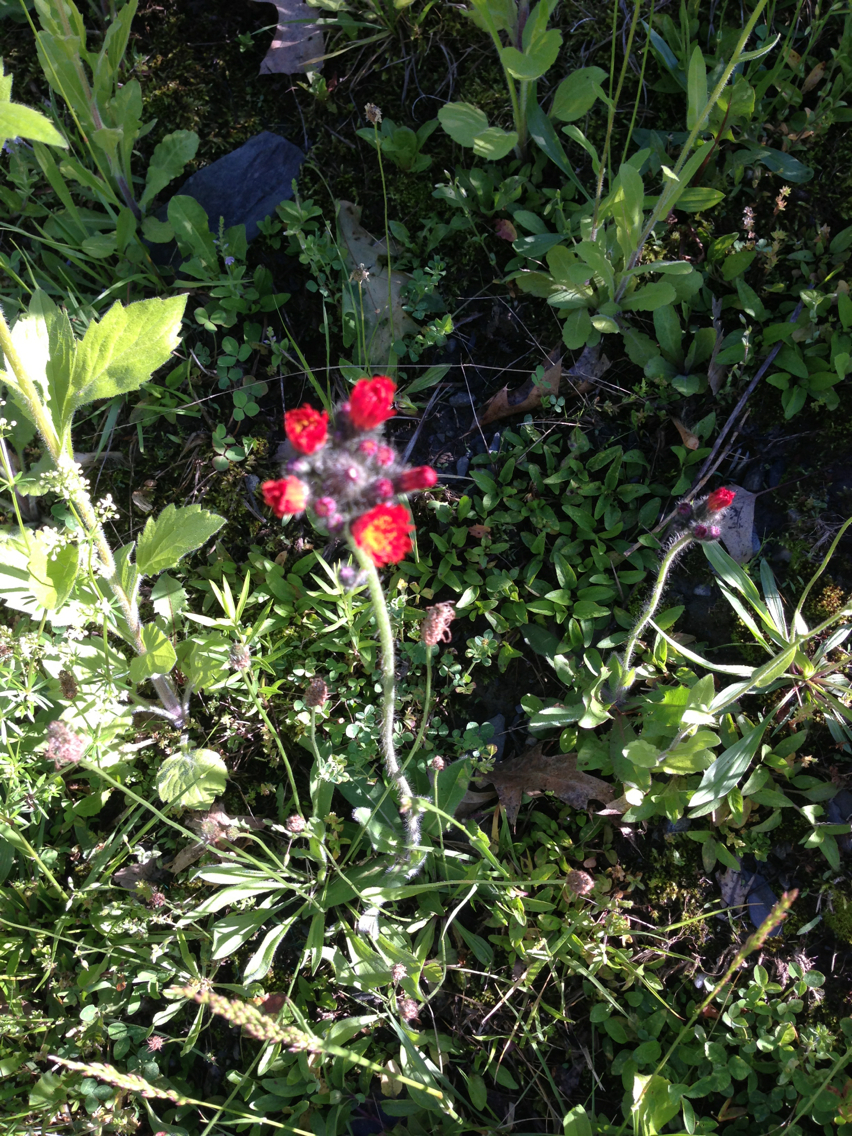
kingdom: Plantae
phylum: Tracheophyta
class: Magnoliopsida
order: Asterales
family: Asteraceae
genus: Pilosella
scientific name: Pilosella aurantiaca
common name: Fox-and-cubs
